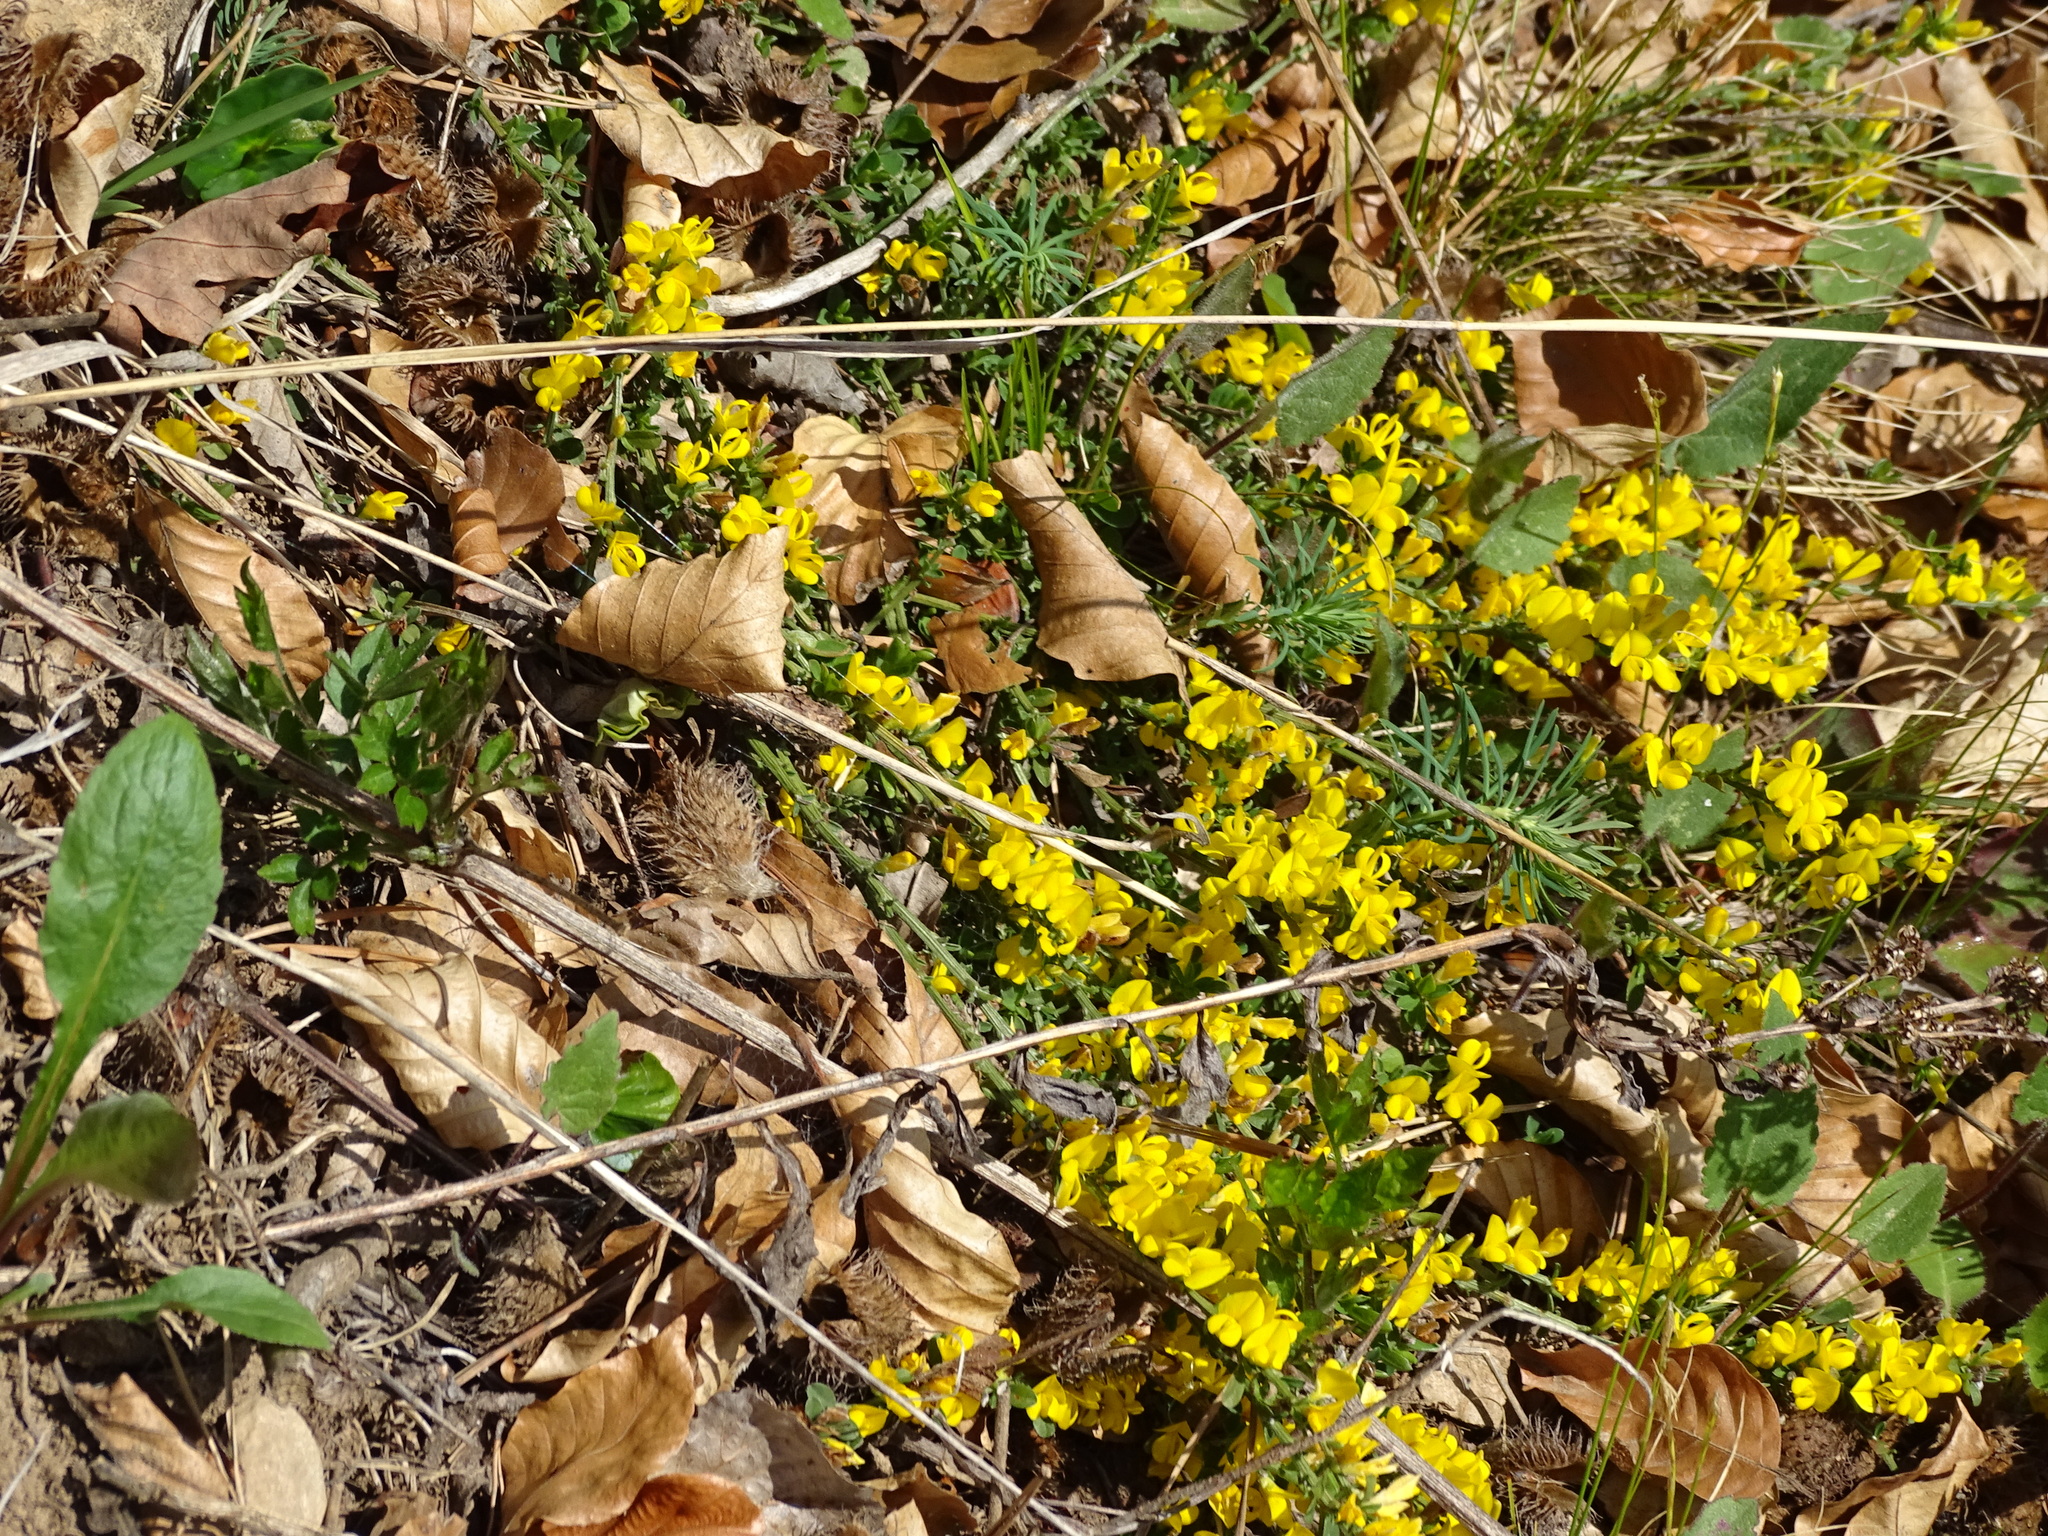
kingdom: Plantae
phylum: Tracheophyta
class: Magnoliopsida
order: Fabales
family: Fabaceae
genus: Genista
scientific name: Genista pilosa
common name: Hairy greenweed
